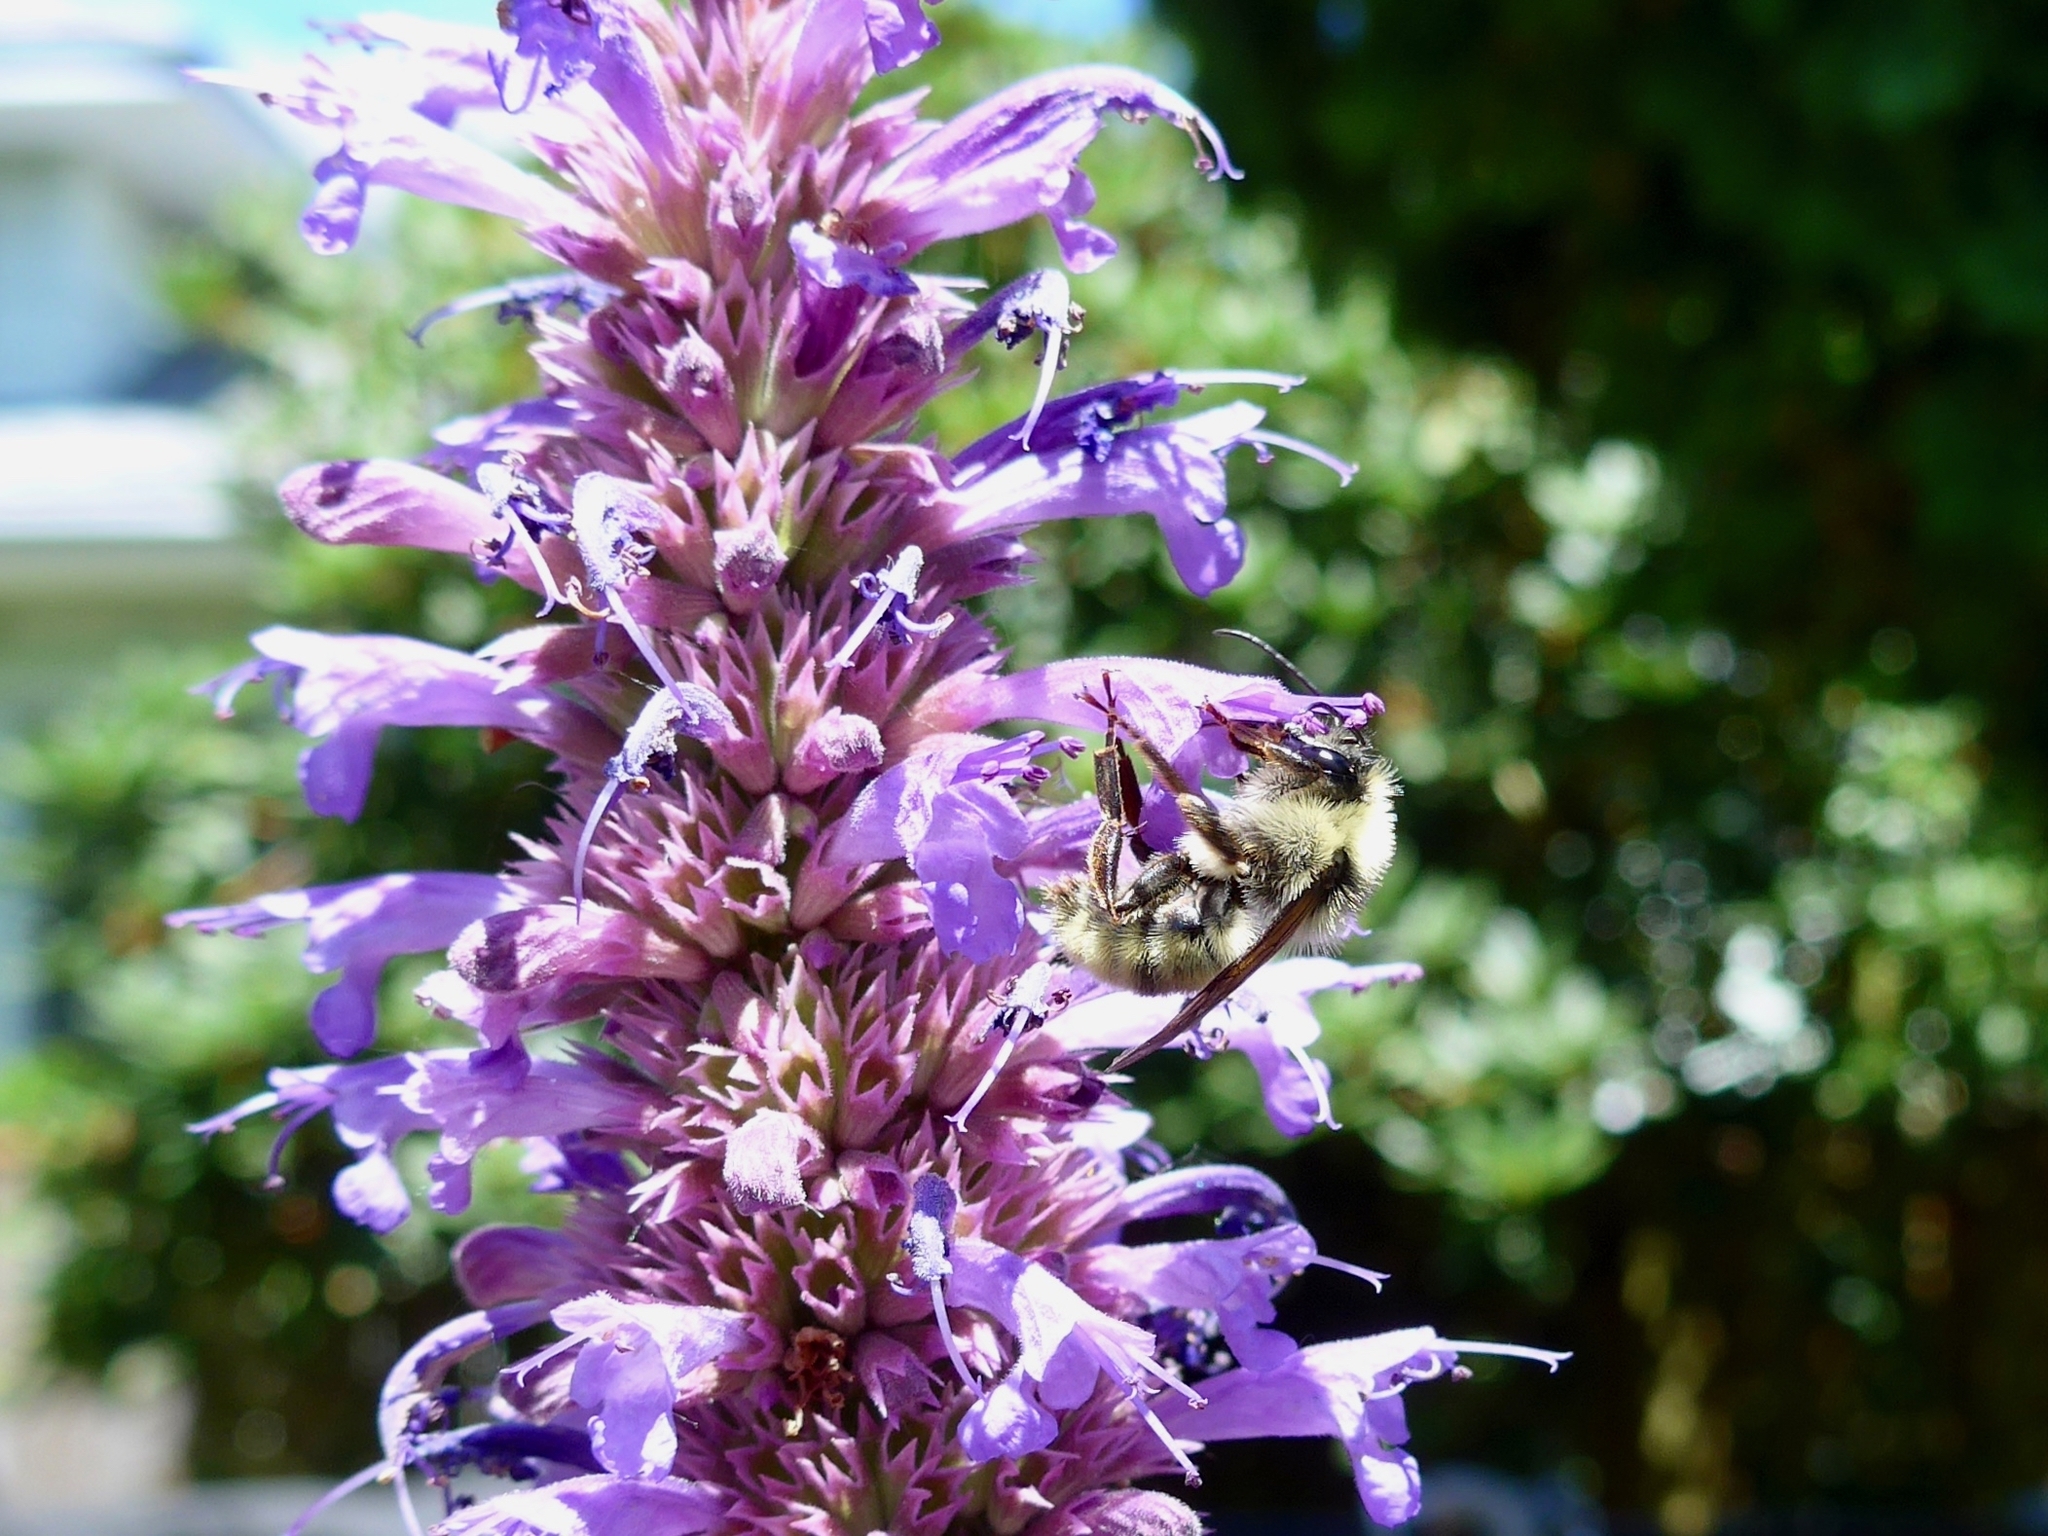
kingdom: Animalia
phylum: Arthropoda
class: Insecta
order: Hymenoptera
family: Apidae
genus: Bombus
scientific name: Bombus californicus
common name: California bumble bee
